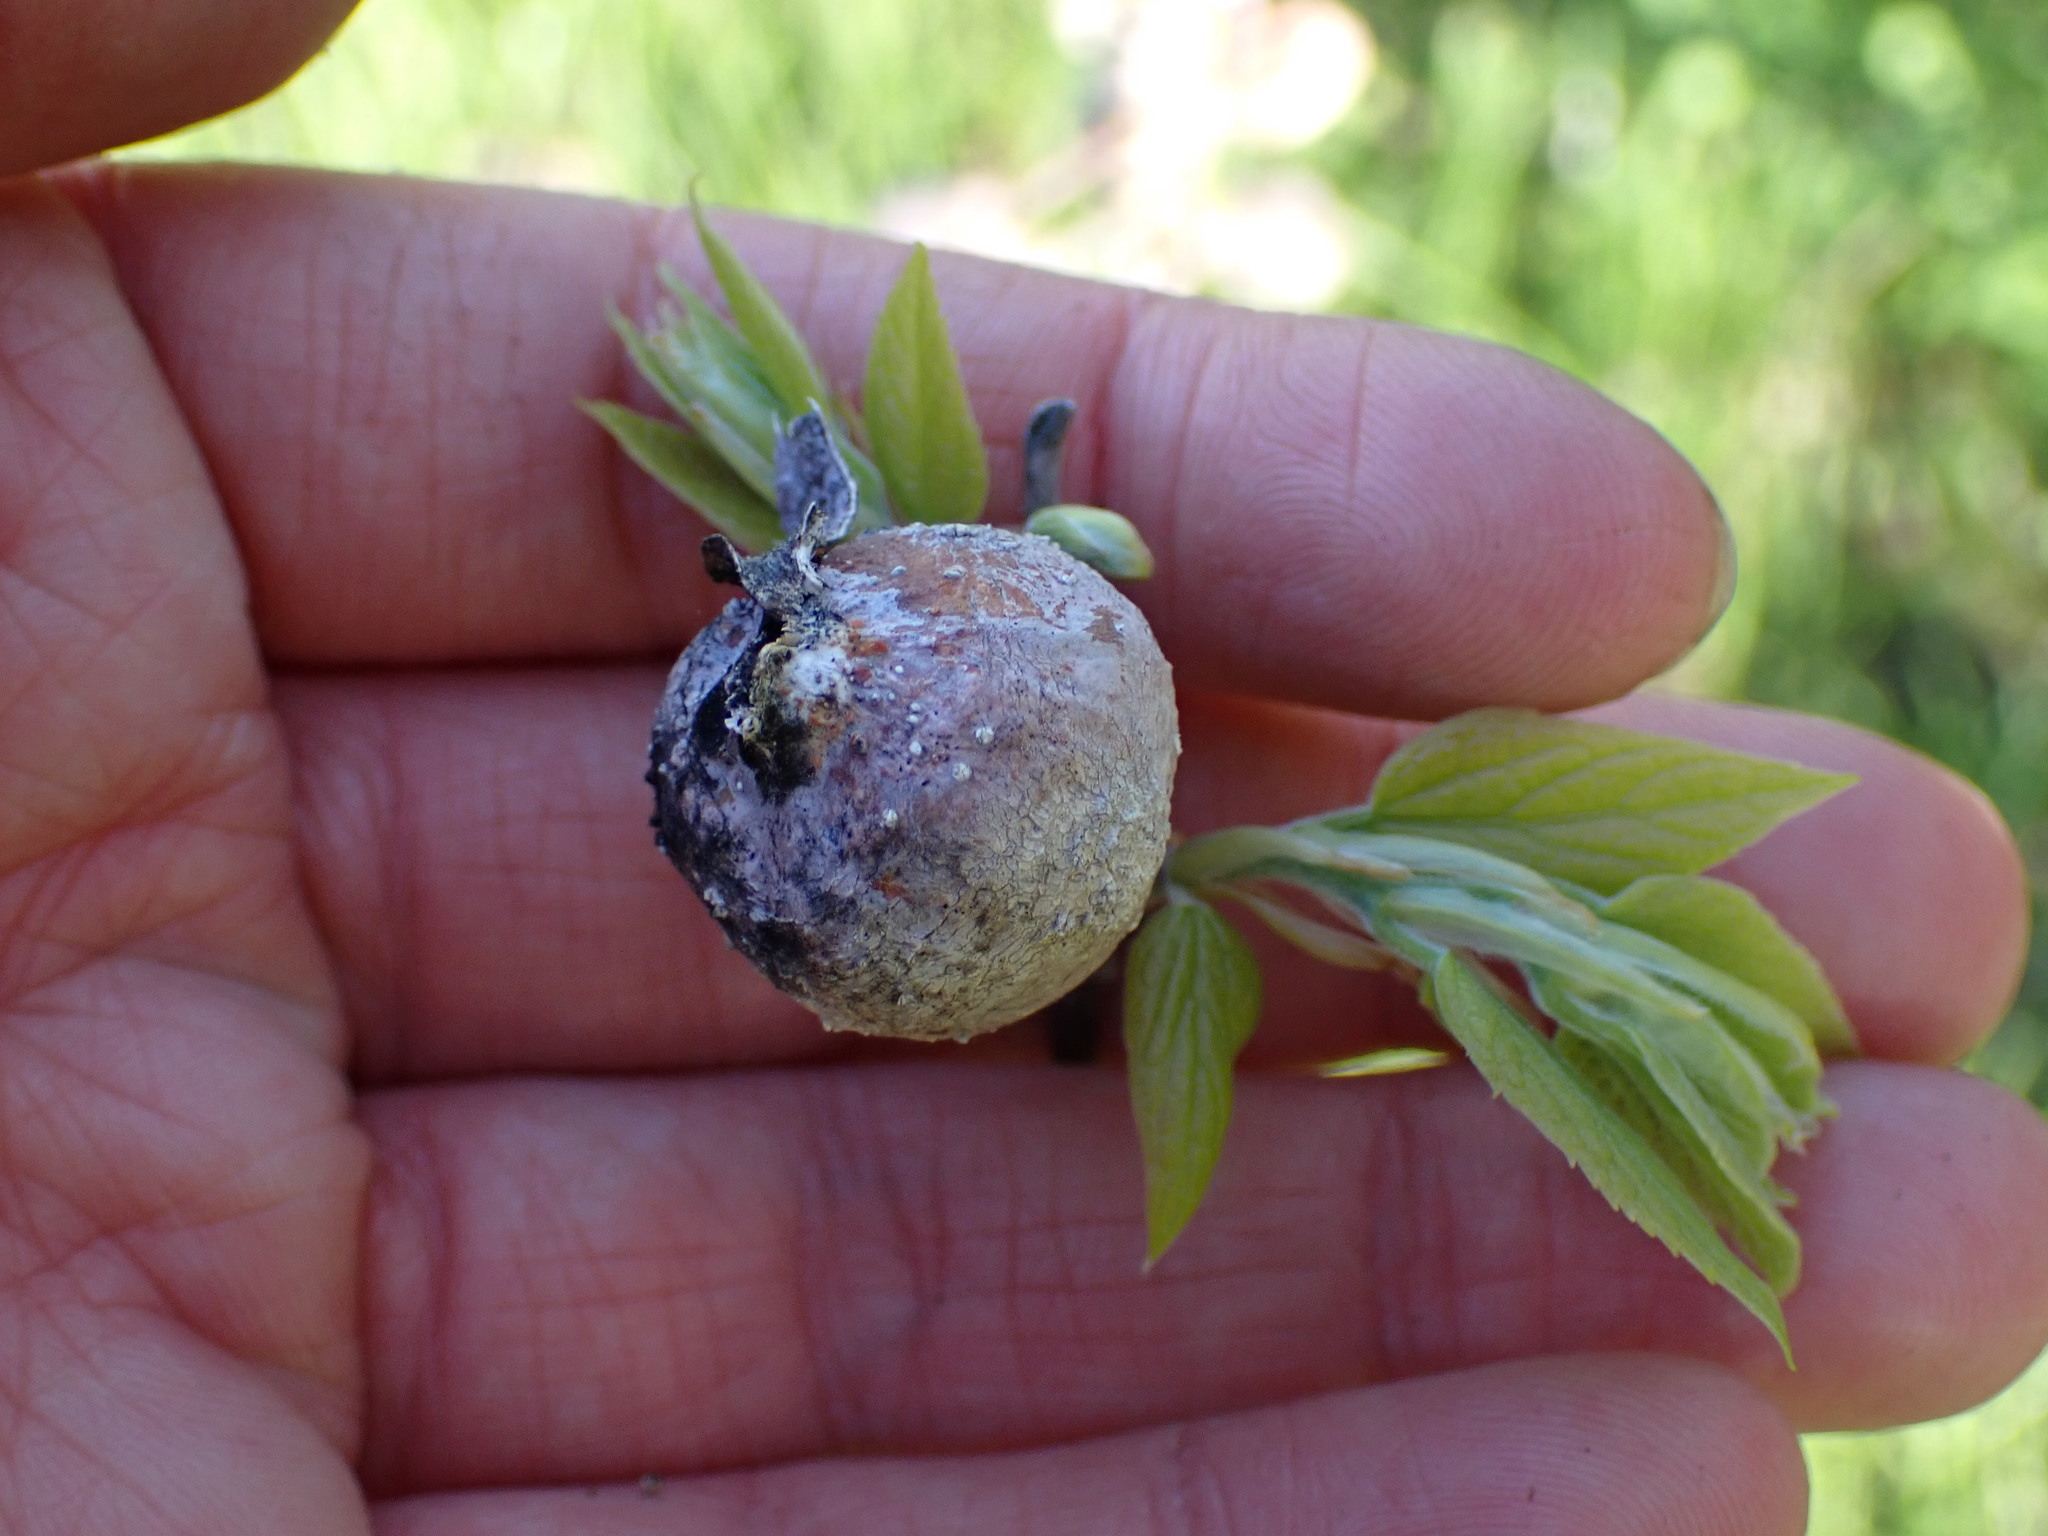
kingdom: Animalia
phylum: Arthropoda
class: Insecta
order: Hemiptera
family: Aphalaridae
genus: Pachypsylla
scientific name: Pachypsylla venusta
